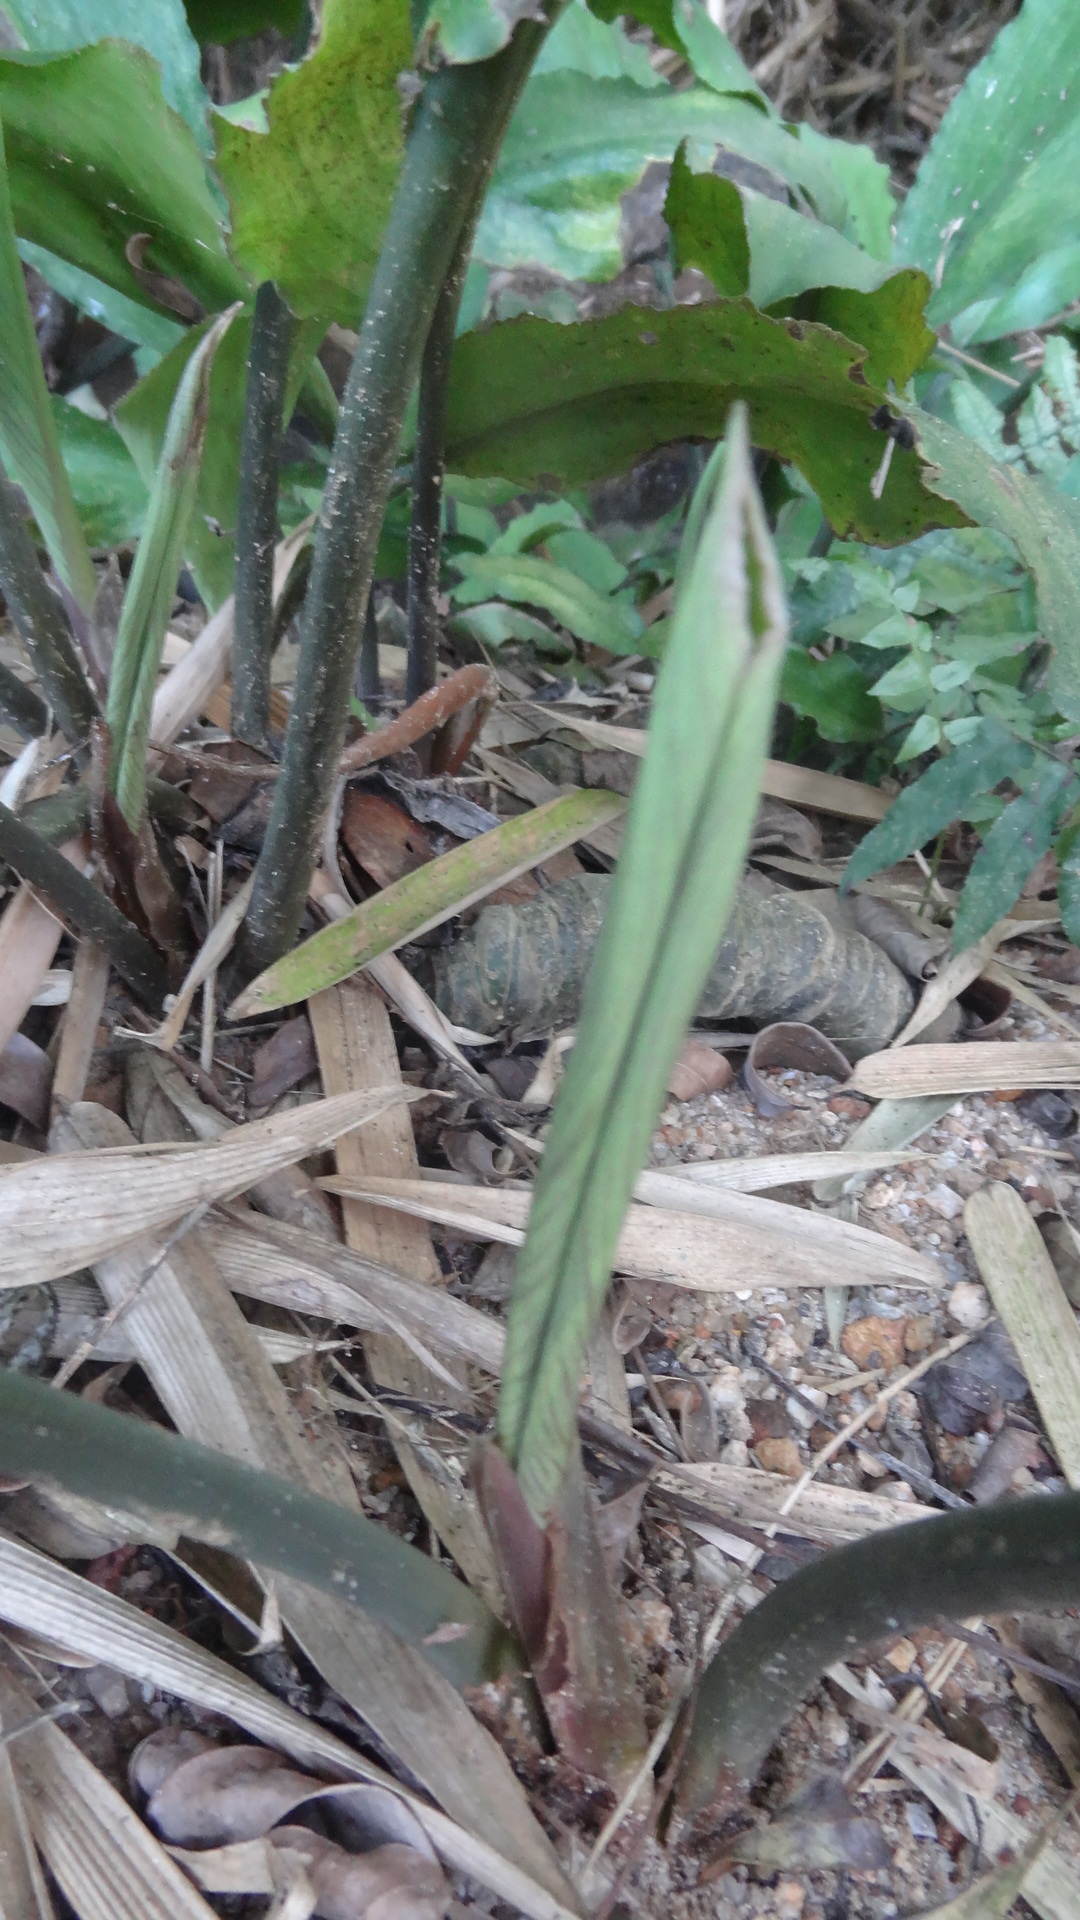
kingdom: Plantae
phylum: Tracheophyta
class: Liliopsida
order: Alismatales
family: Araceae
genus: Lagenandra
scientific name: Lagenandra ovata
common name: Malayan sword
